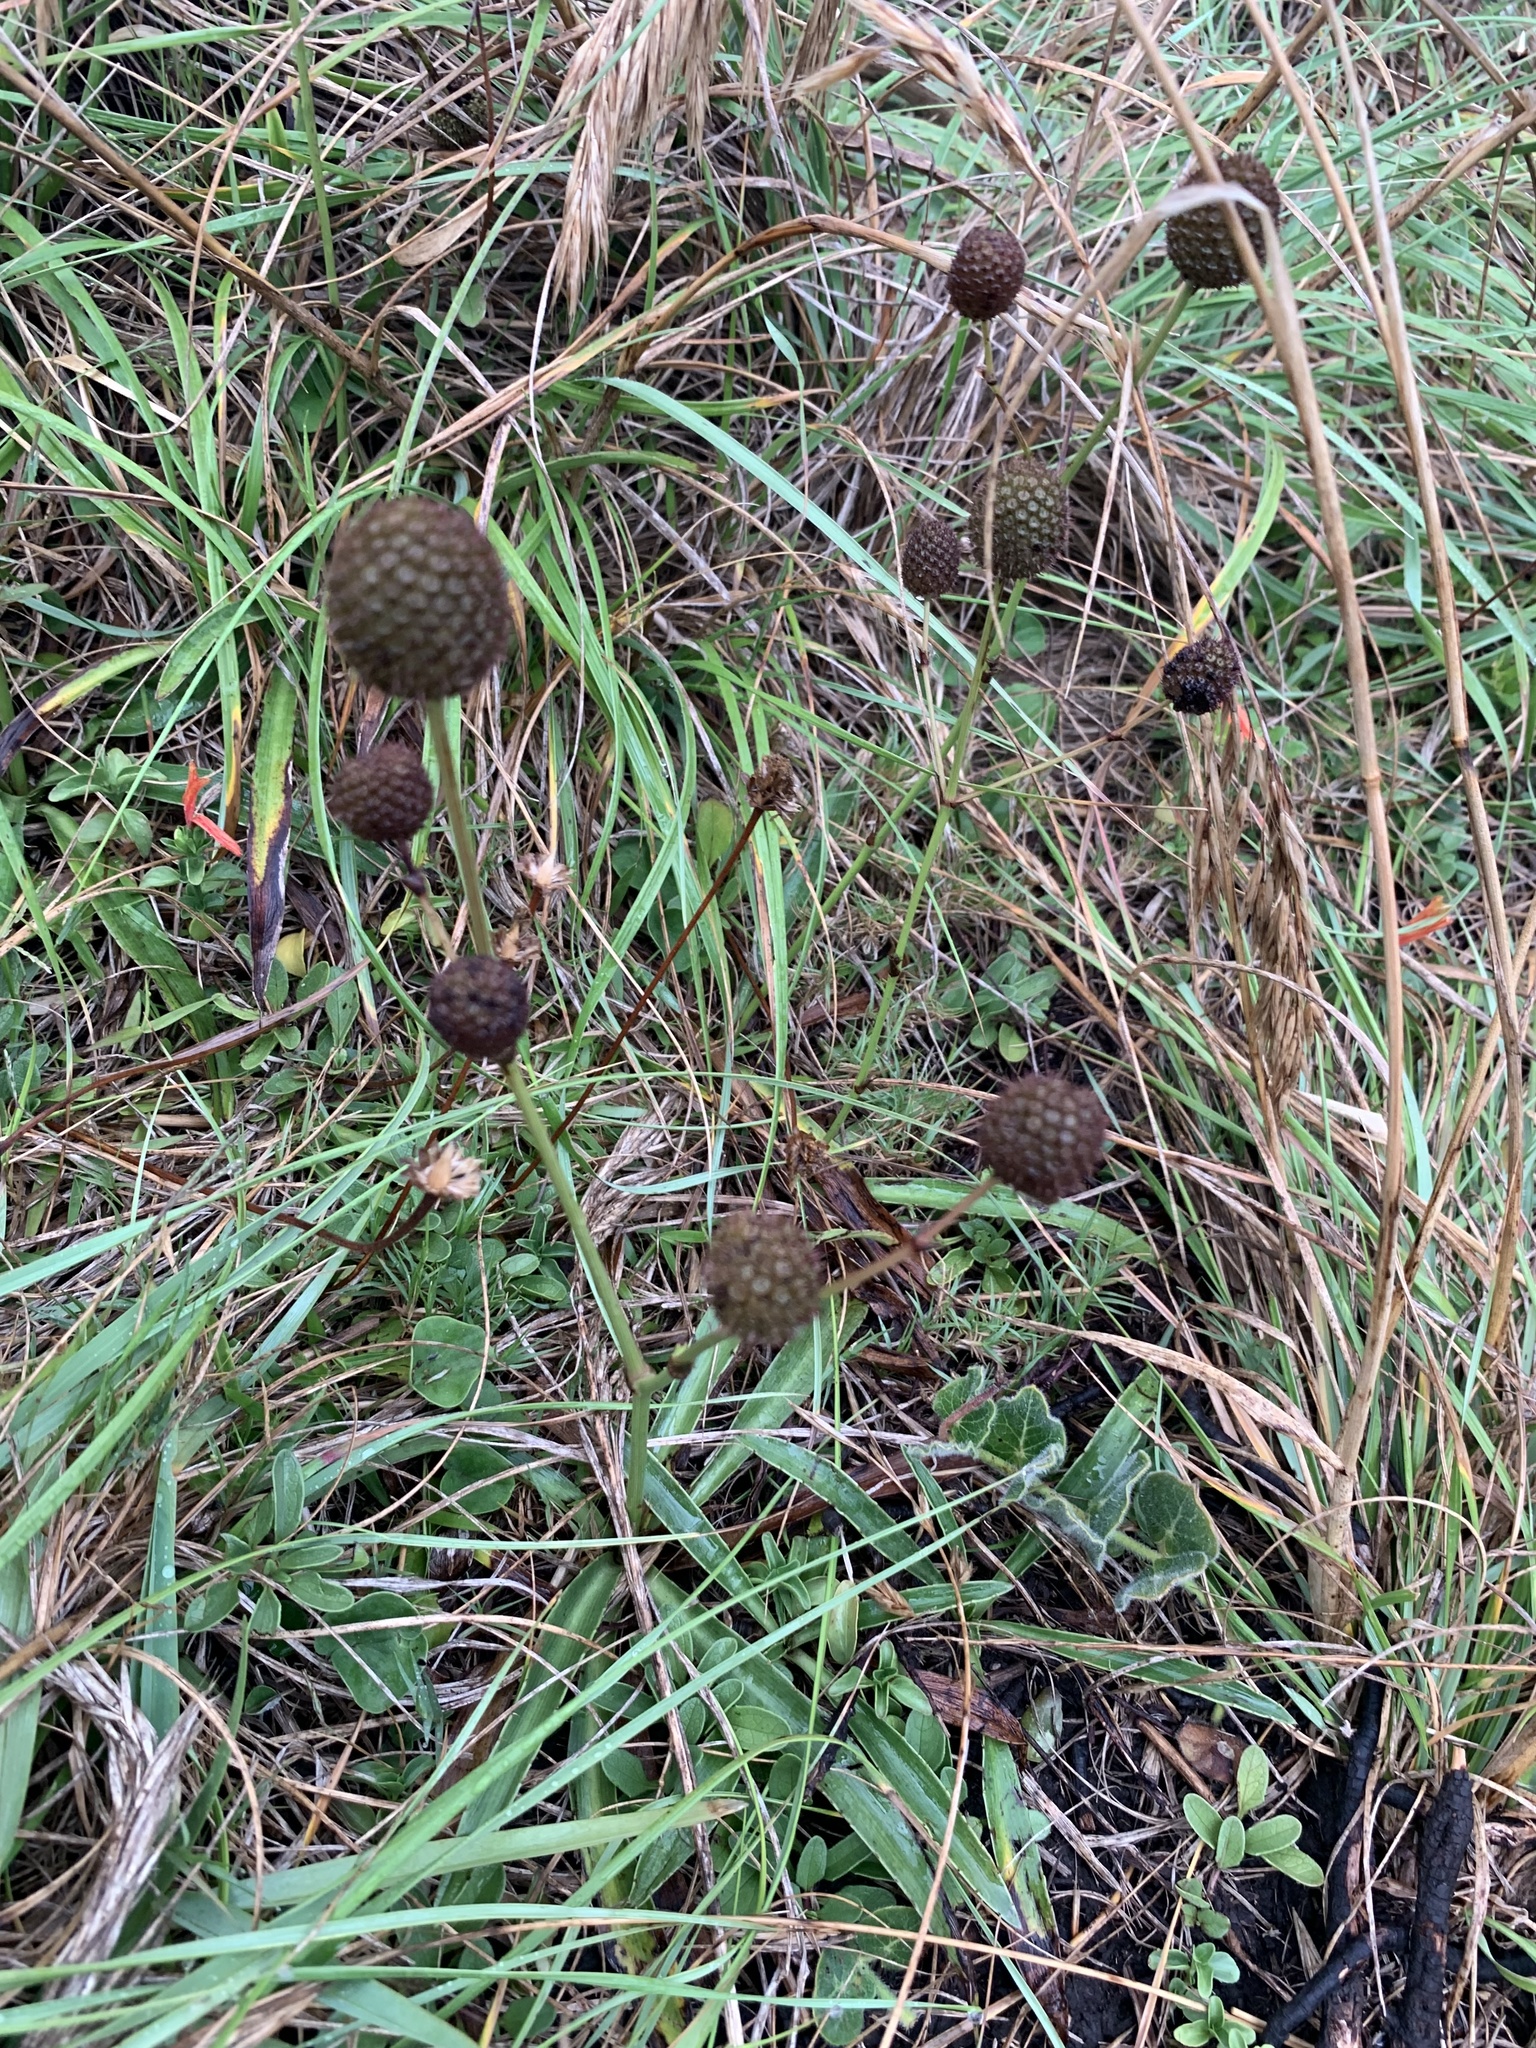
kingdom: Plantae
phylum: Tracheophyta
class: Magnoliopsida
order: Apiales
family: Apiaceae
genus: Eryngium
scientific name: Eryngium sanguisorba
